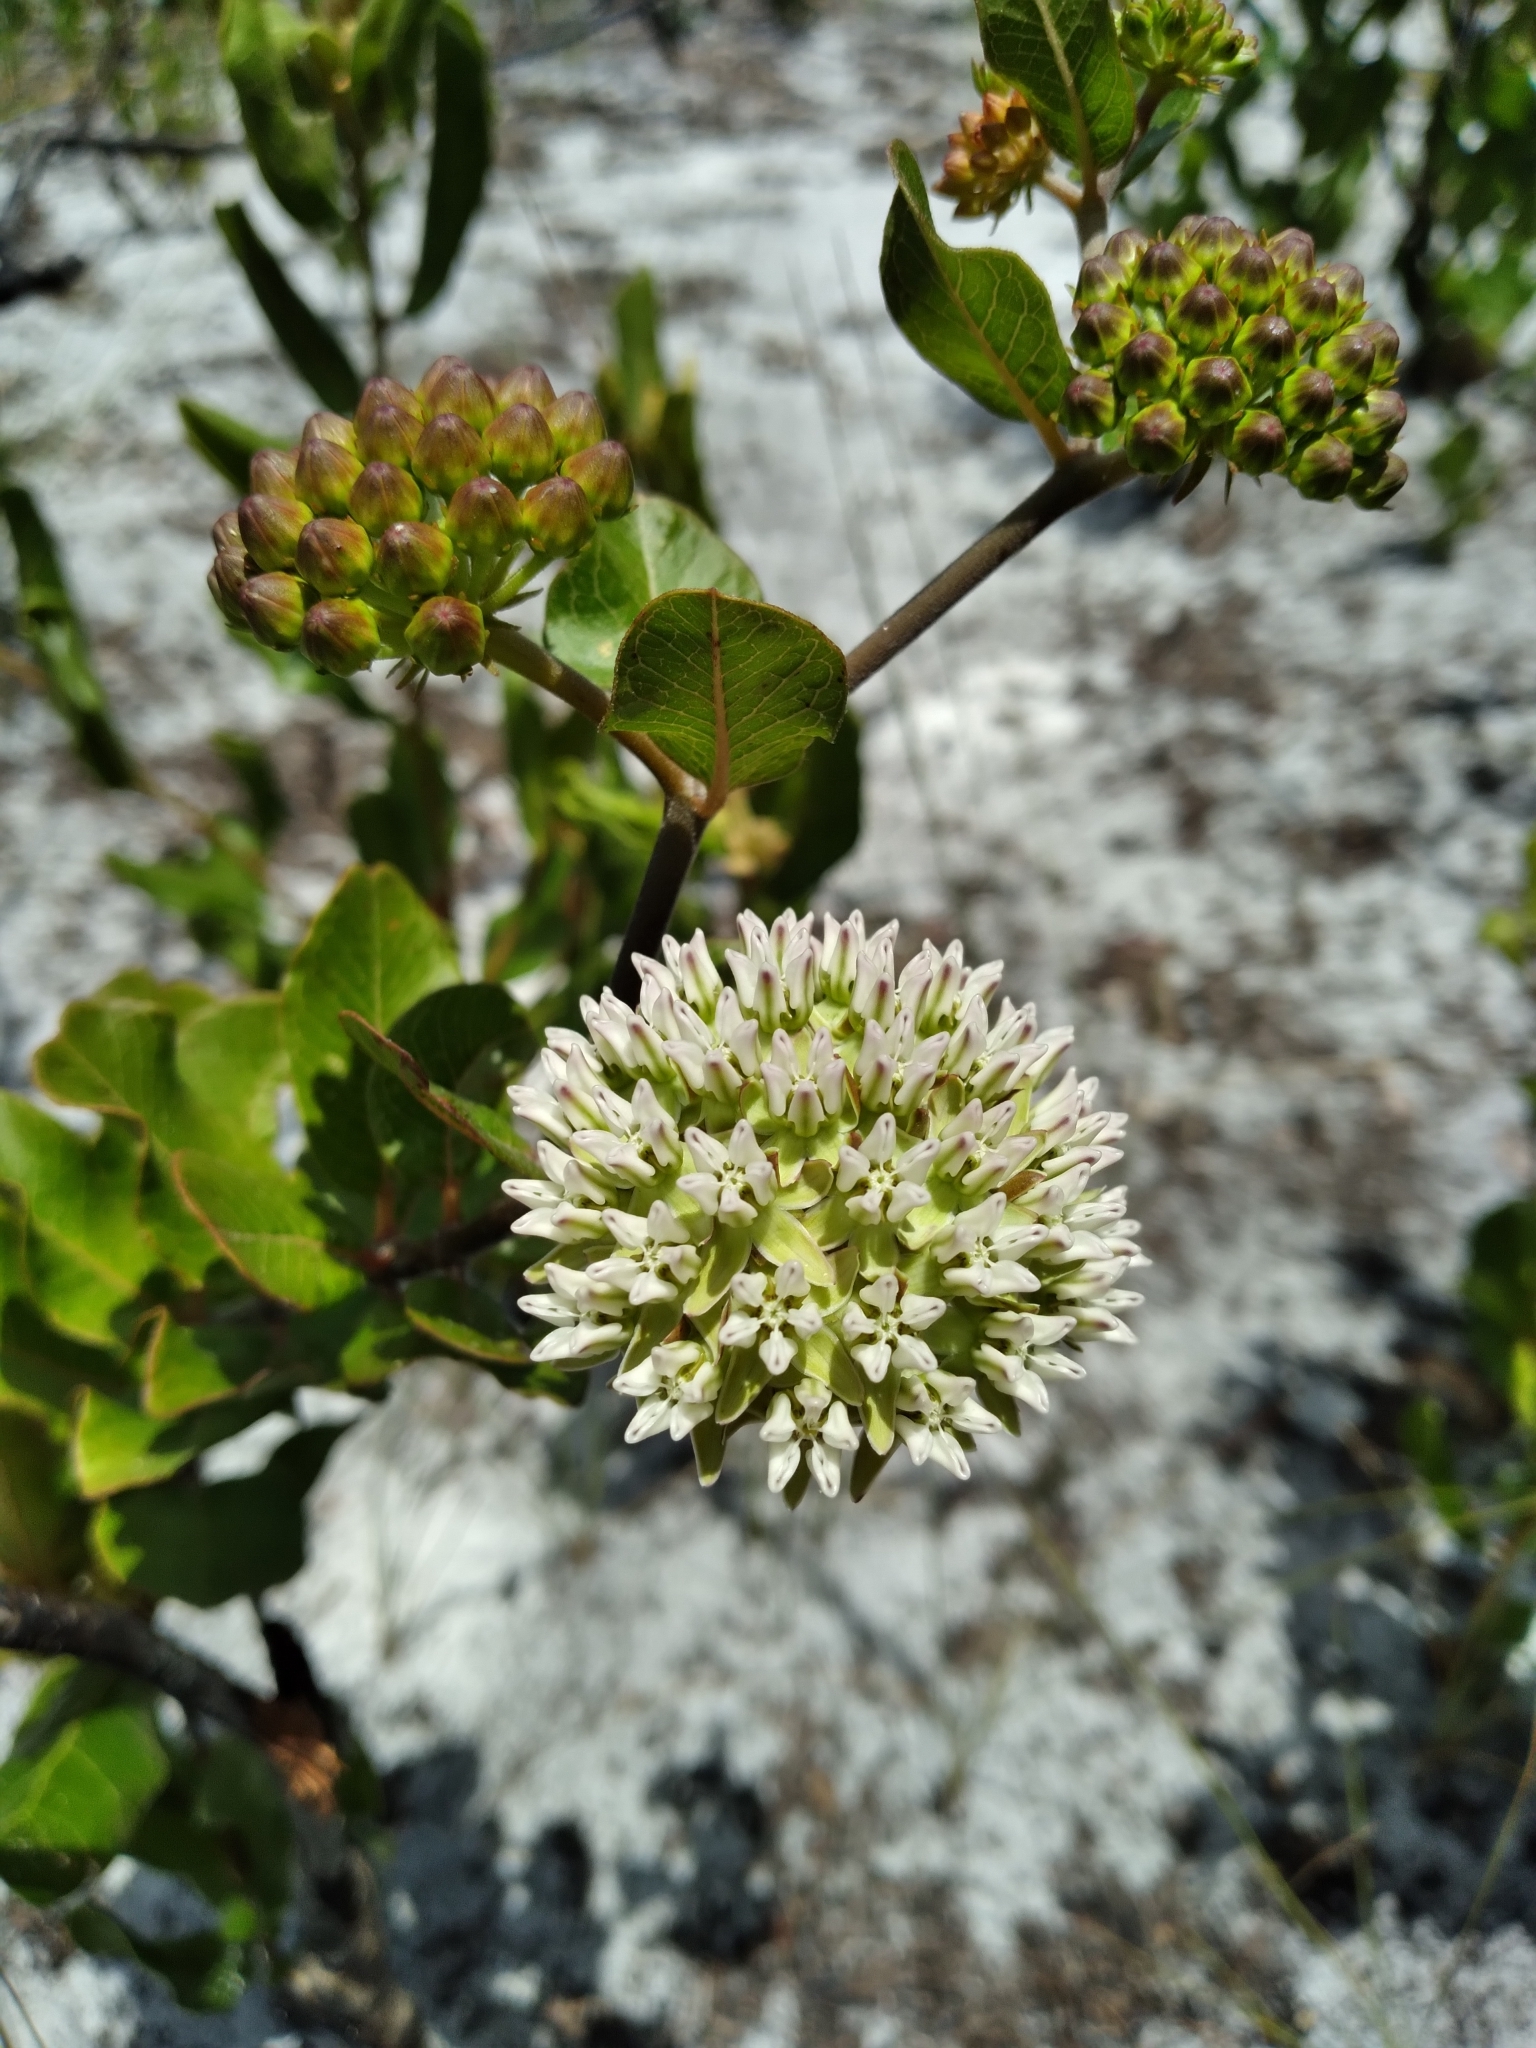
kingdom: Plantae
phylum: Tracheophyta
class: Magnoliopsida
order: Gentianales
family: Apocynaceae
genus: Asclepias
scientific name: Asclepias curtissii
